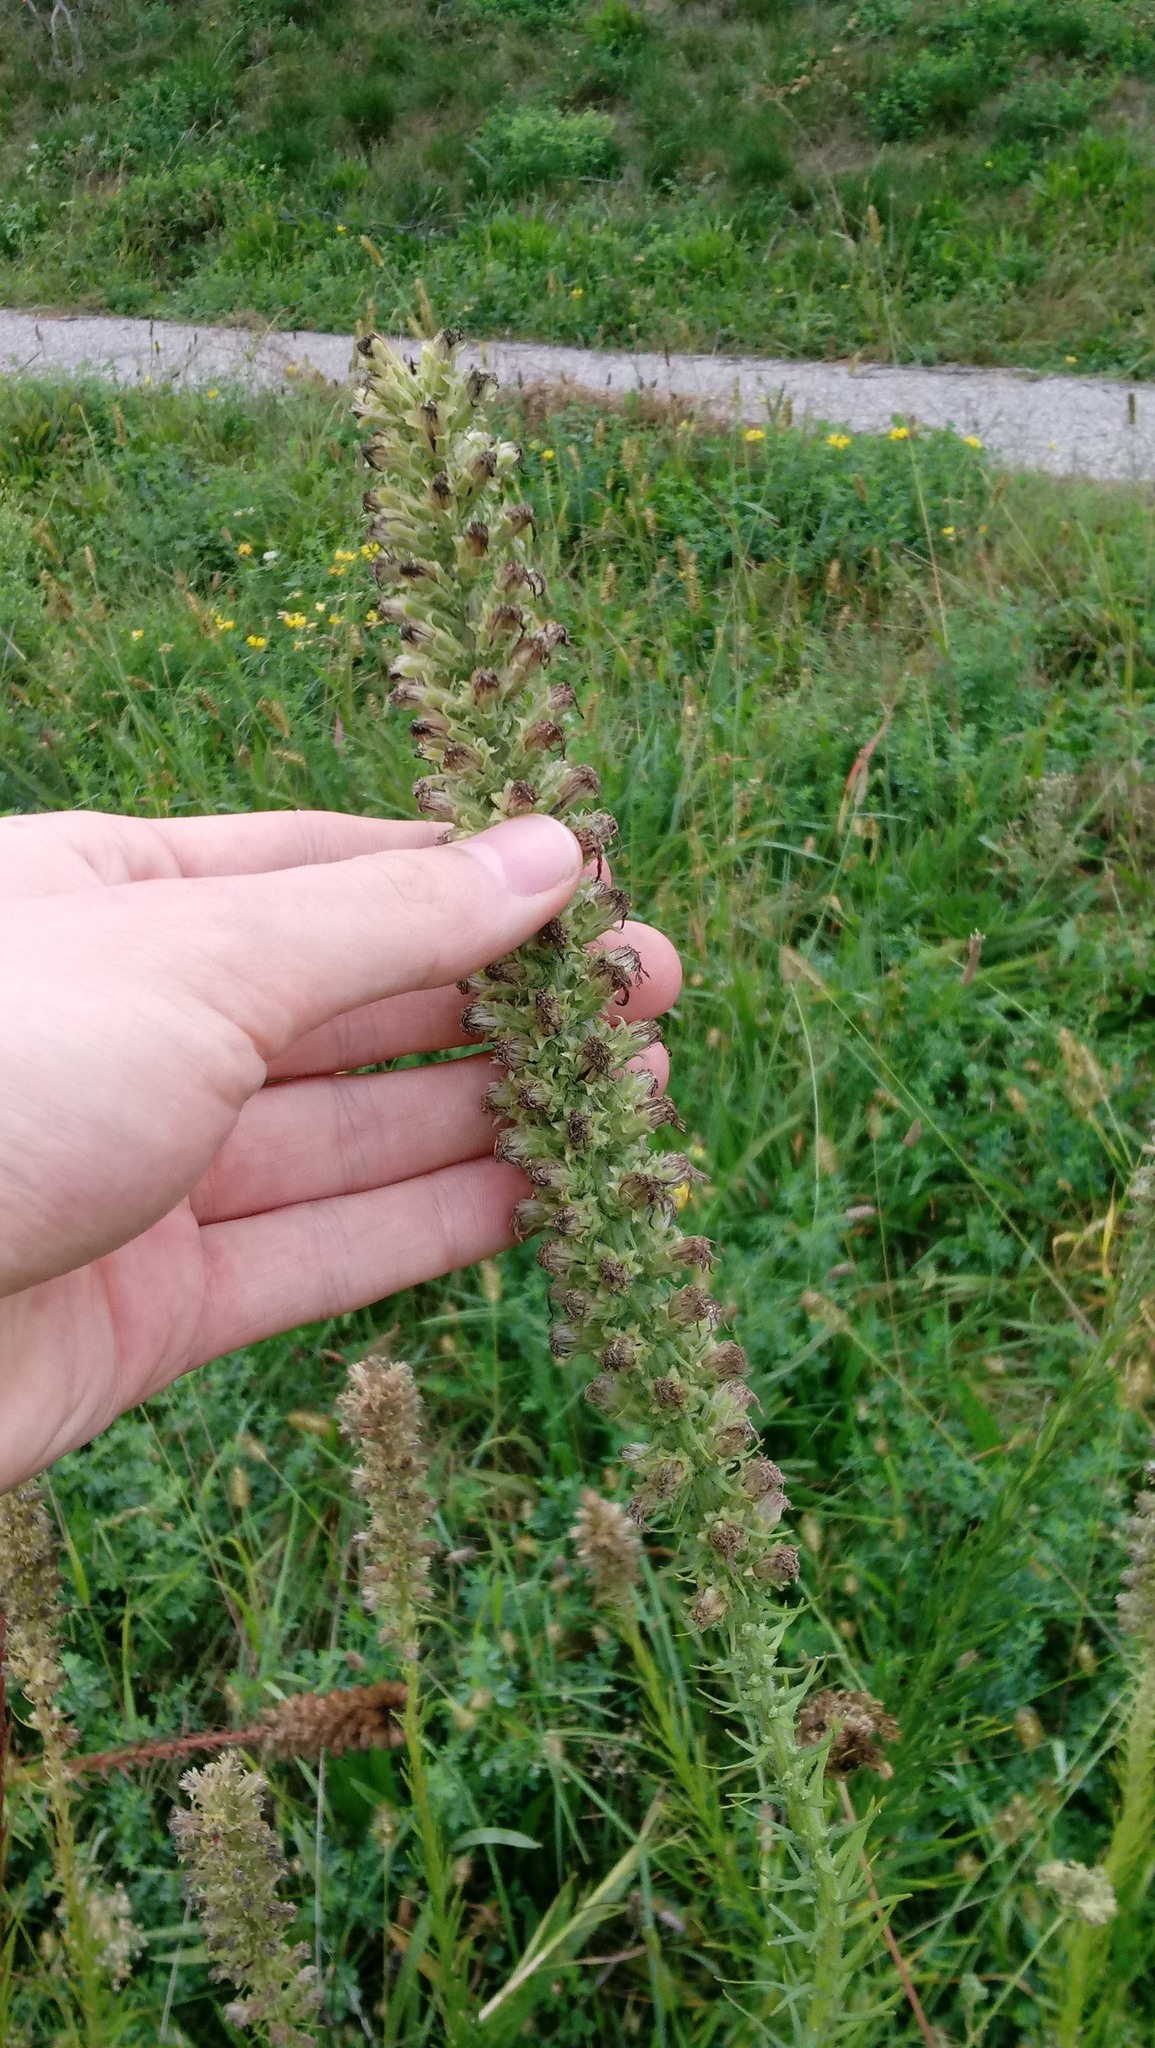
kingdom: Plantae
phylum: Tracheophyta
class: Magnoliopsida
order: Asterales
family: Asteraceae
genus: Liatris
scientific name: Liatris pycnostachya
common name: Cattail gayfeather
